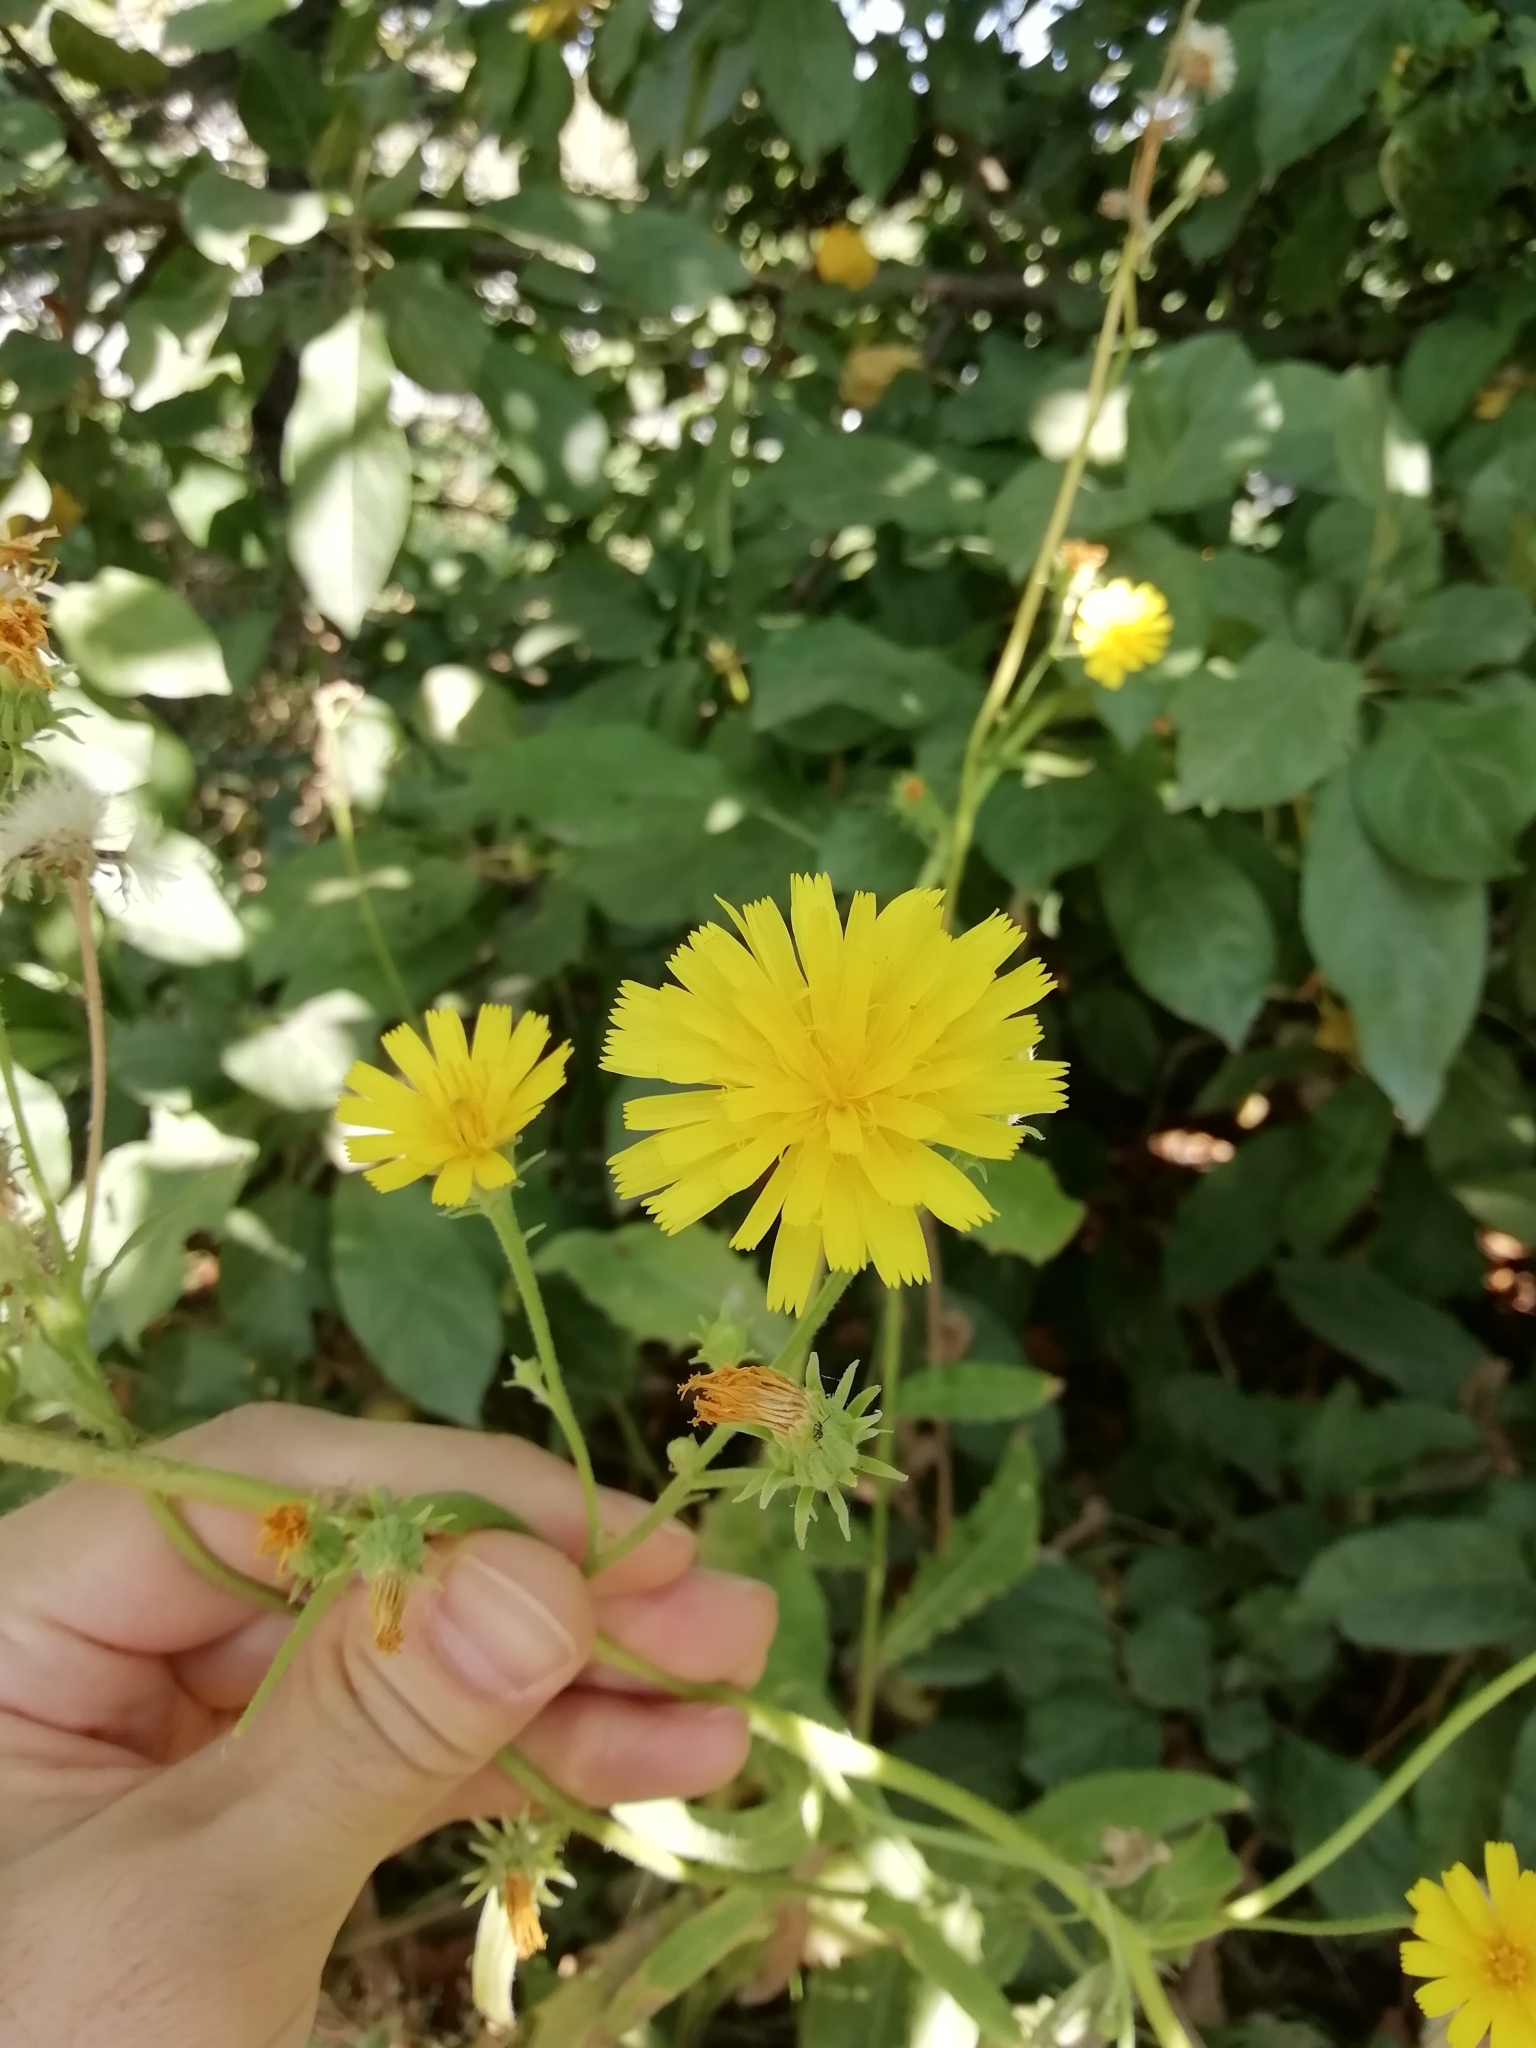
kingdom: Plantae
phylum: Tracheophyta
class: Magnoliopsida
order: Asterales
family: Asteraceae
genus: Picris
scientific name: Picris hieracioides
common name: Hawkweed oxtongue
